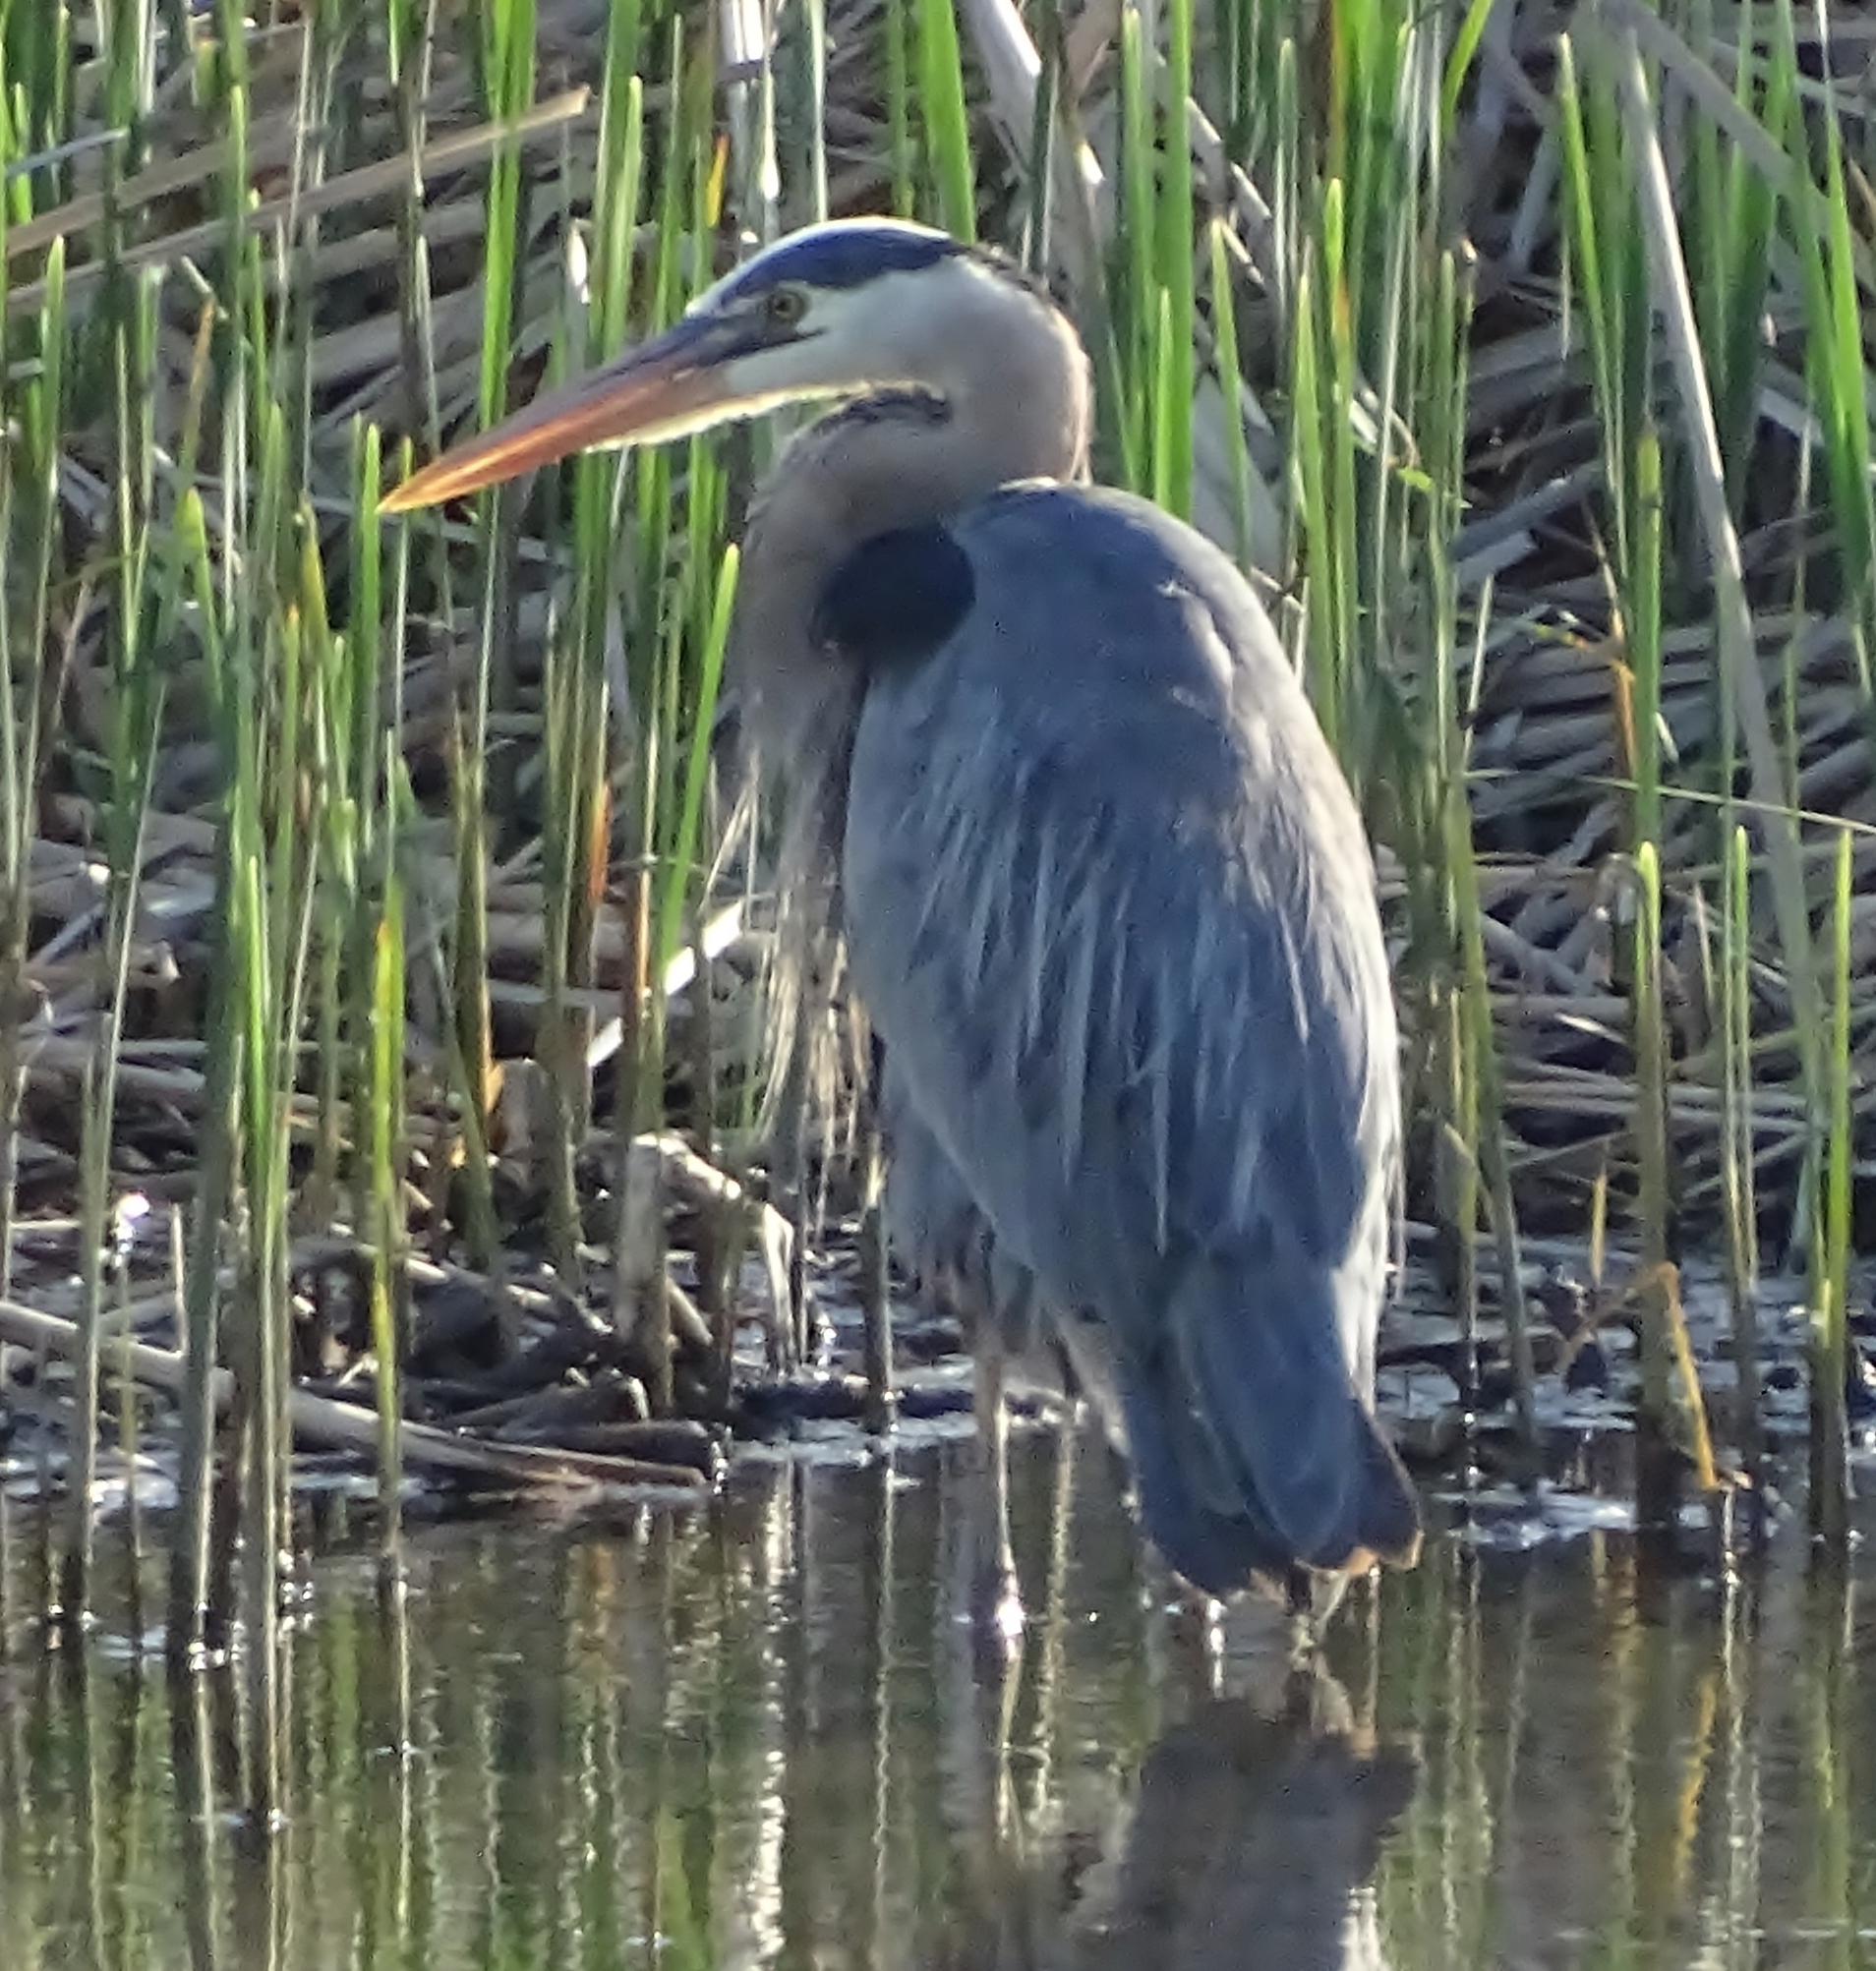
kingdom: Animalia
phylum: Chordata
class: Aves
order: Pelecaniformes
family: Ardeidae
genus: Ardea
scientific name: Ardea herodias
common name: Great blue heron
